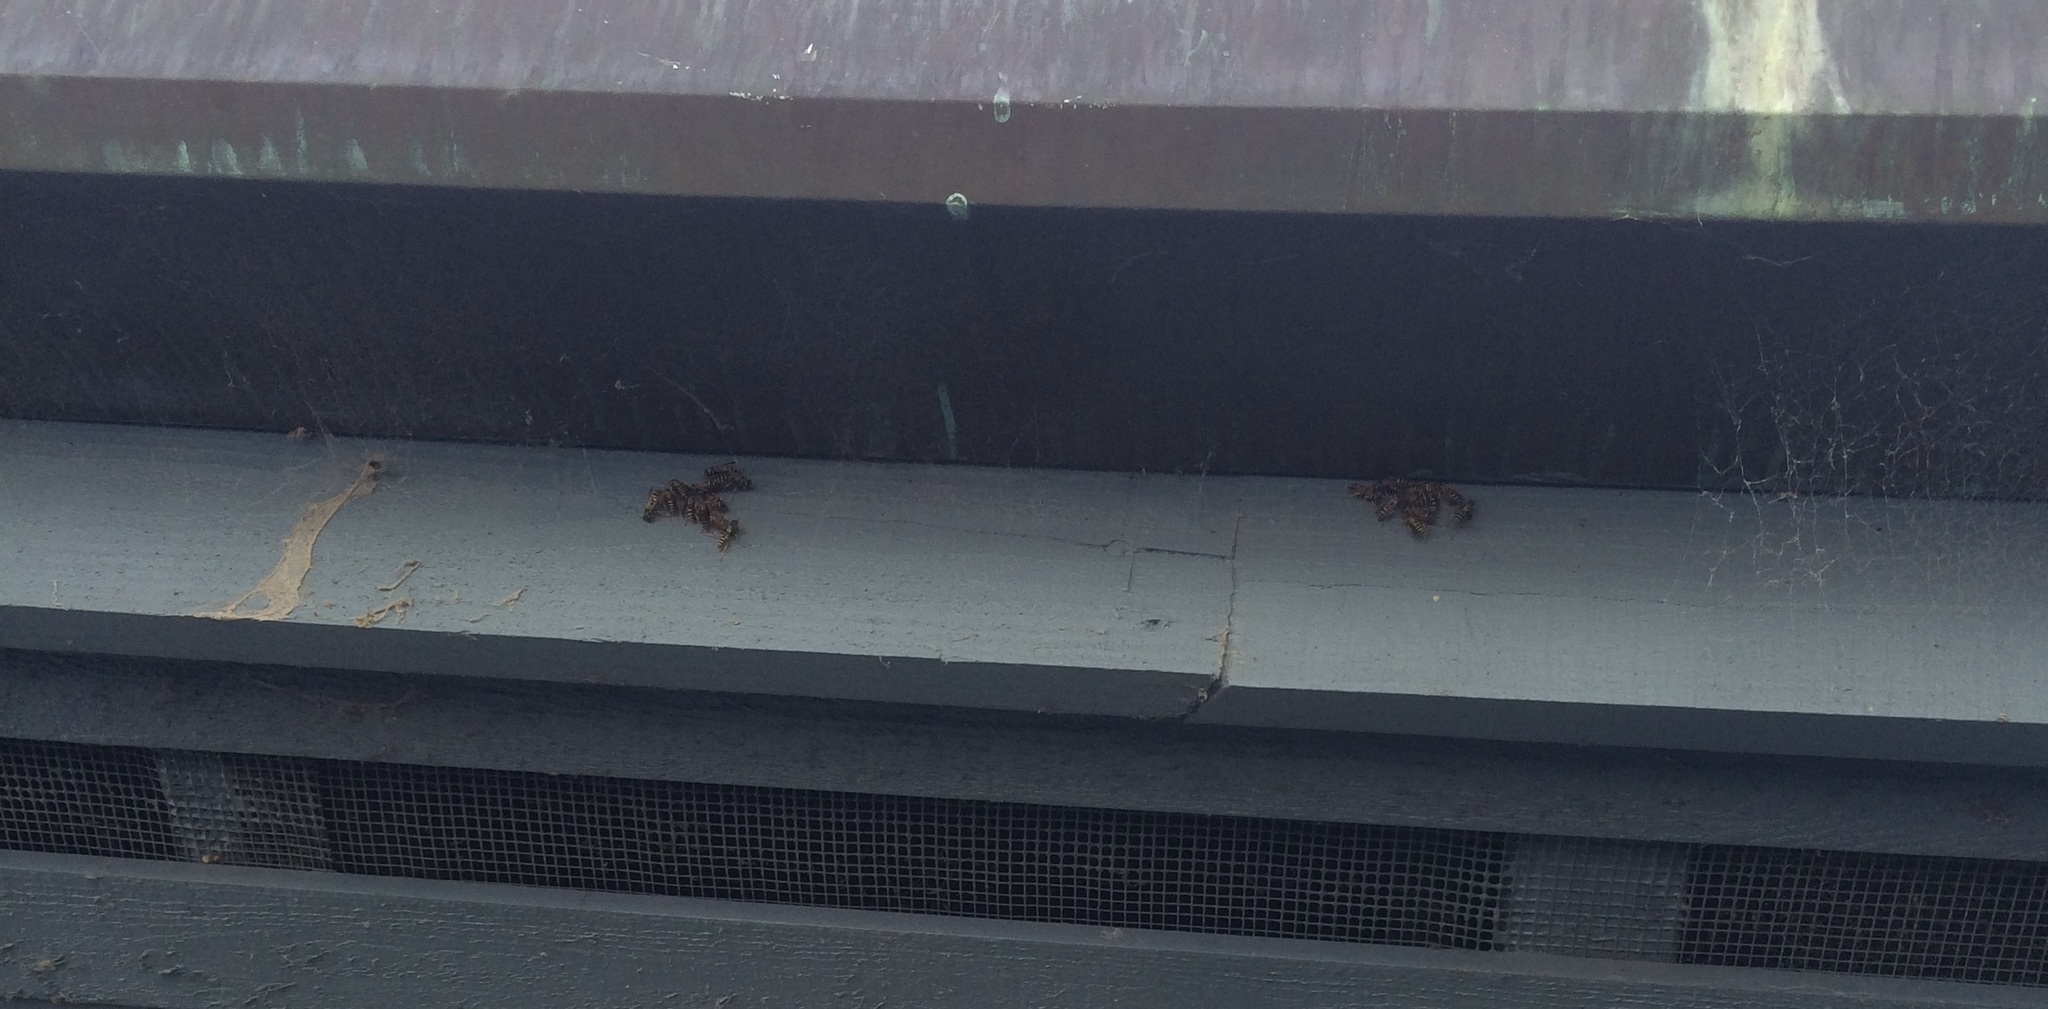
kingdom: Animalia
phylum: Arthropoda
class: Insecta
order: Hymenoptera
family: Eumenidae
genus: Polistes
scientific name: Polistes dominula
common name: Paper wasp
